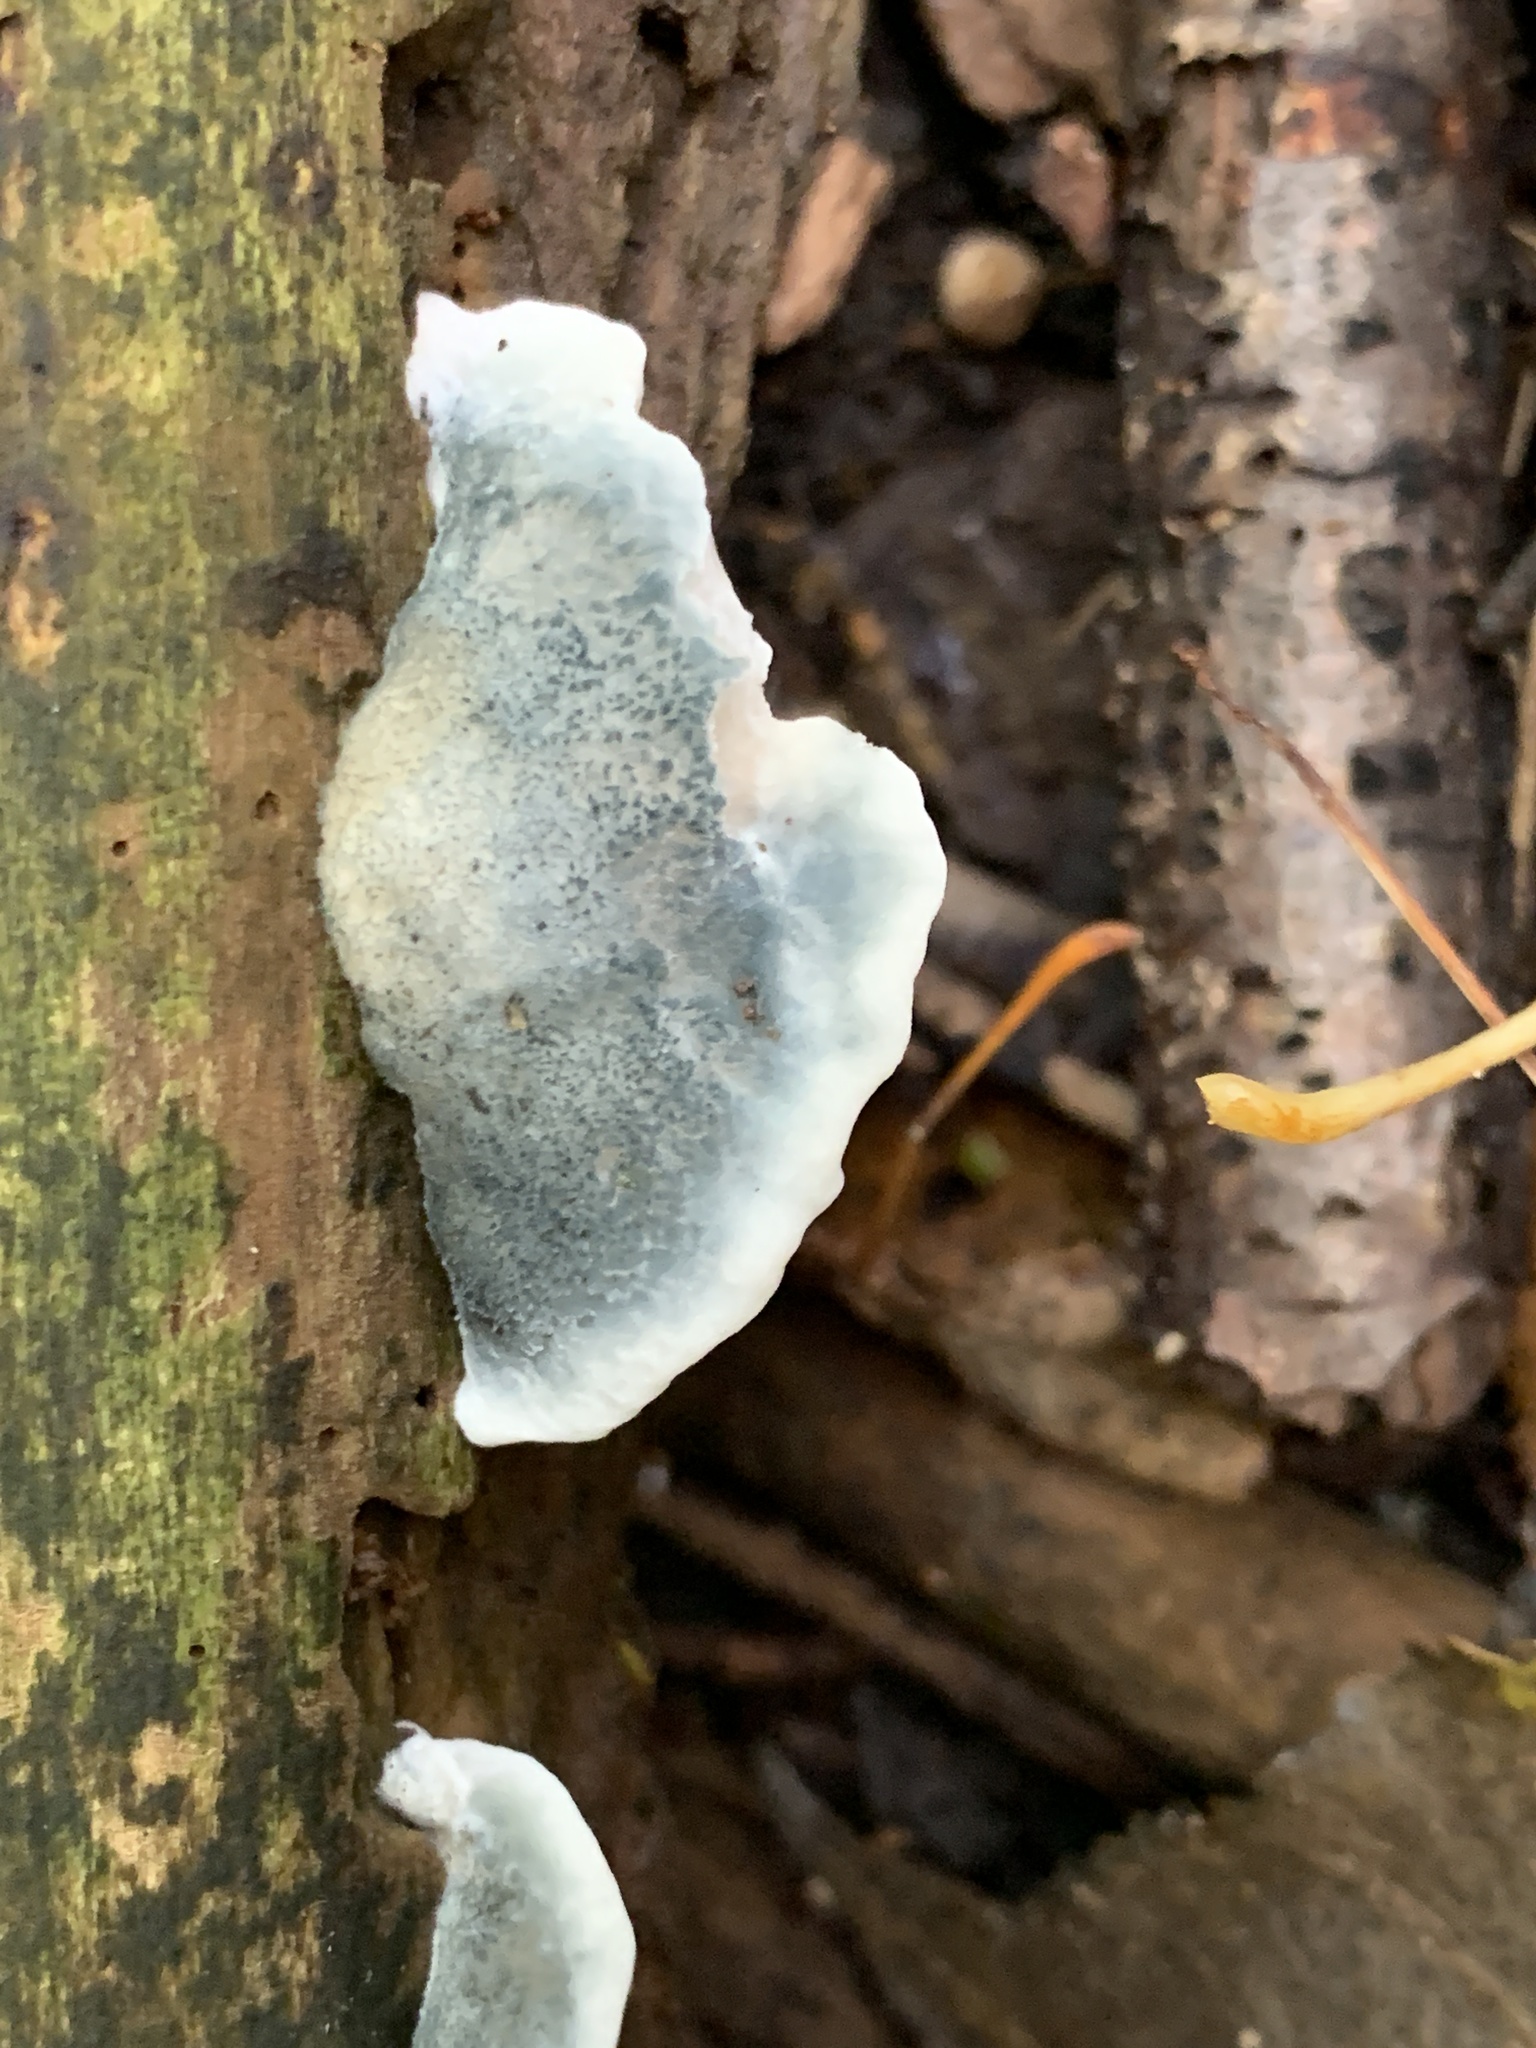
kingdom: Fungi
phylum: Basidiomycota
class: Agaricomycetes
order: Polyporales
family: Polyporaceae
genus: Cyanosporus
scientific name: Cyanosporus caesius
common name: Blue cheese polypore
